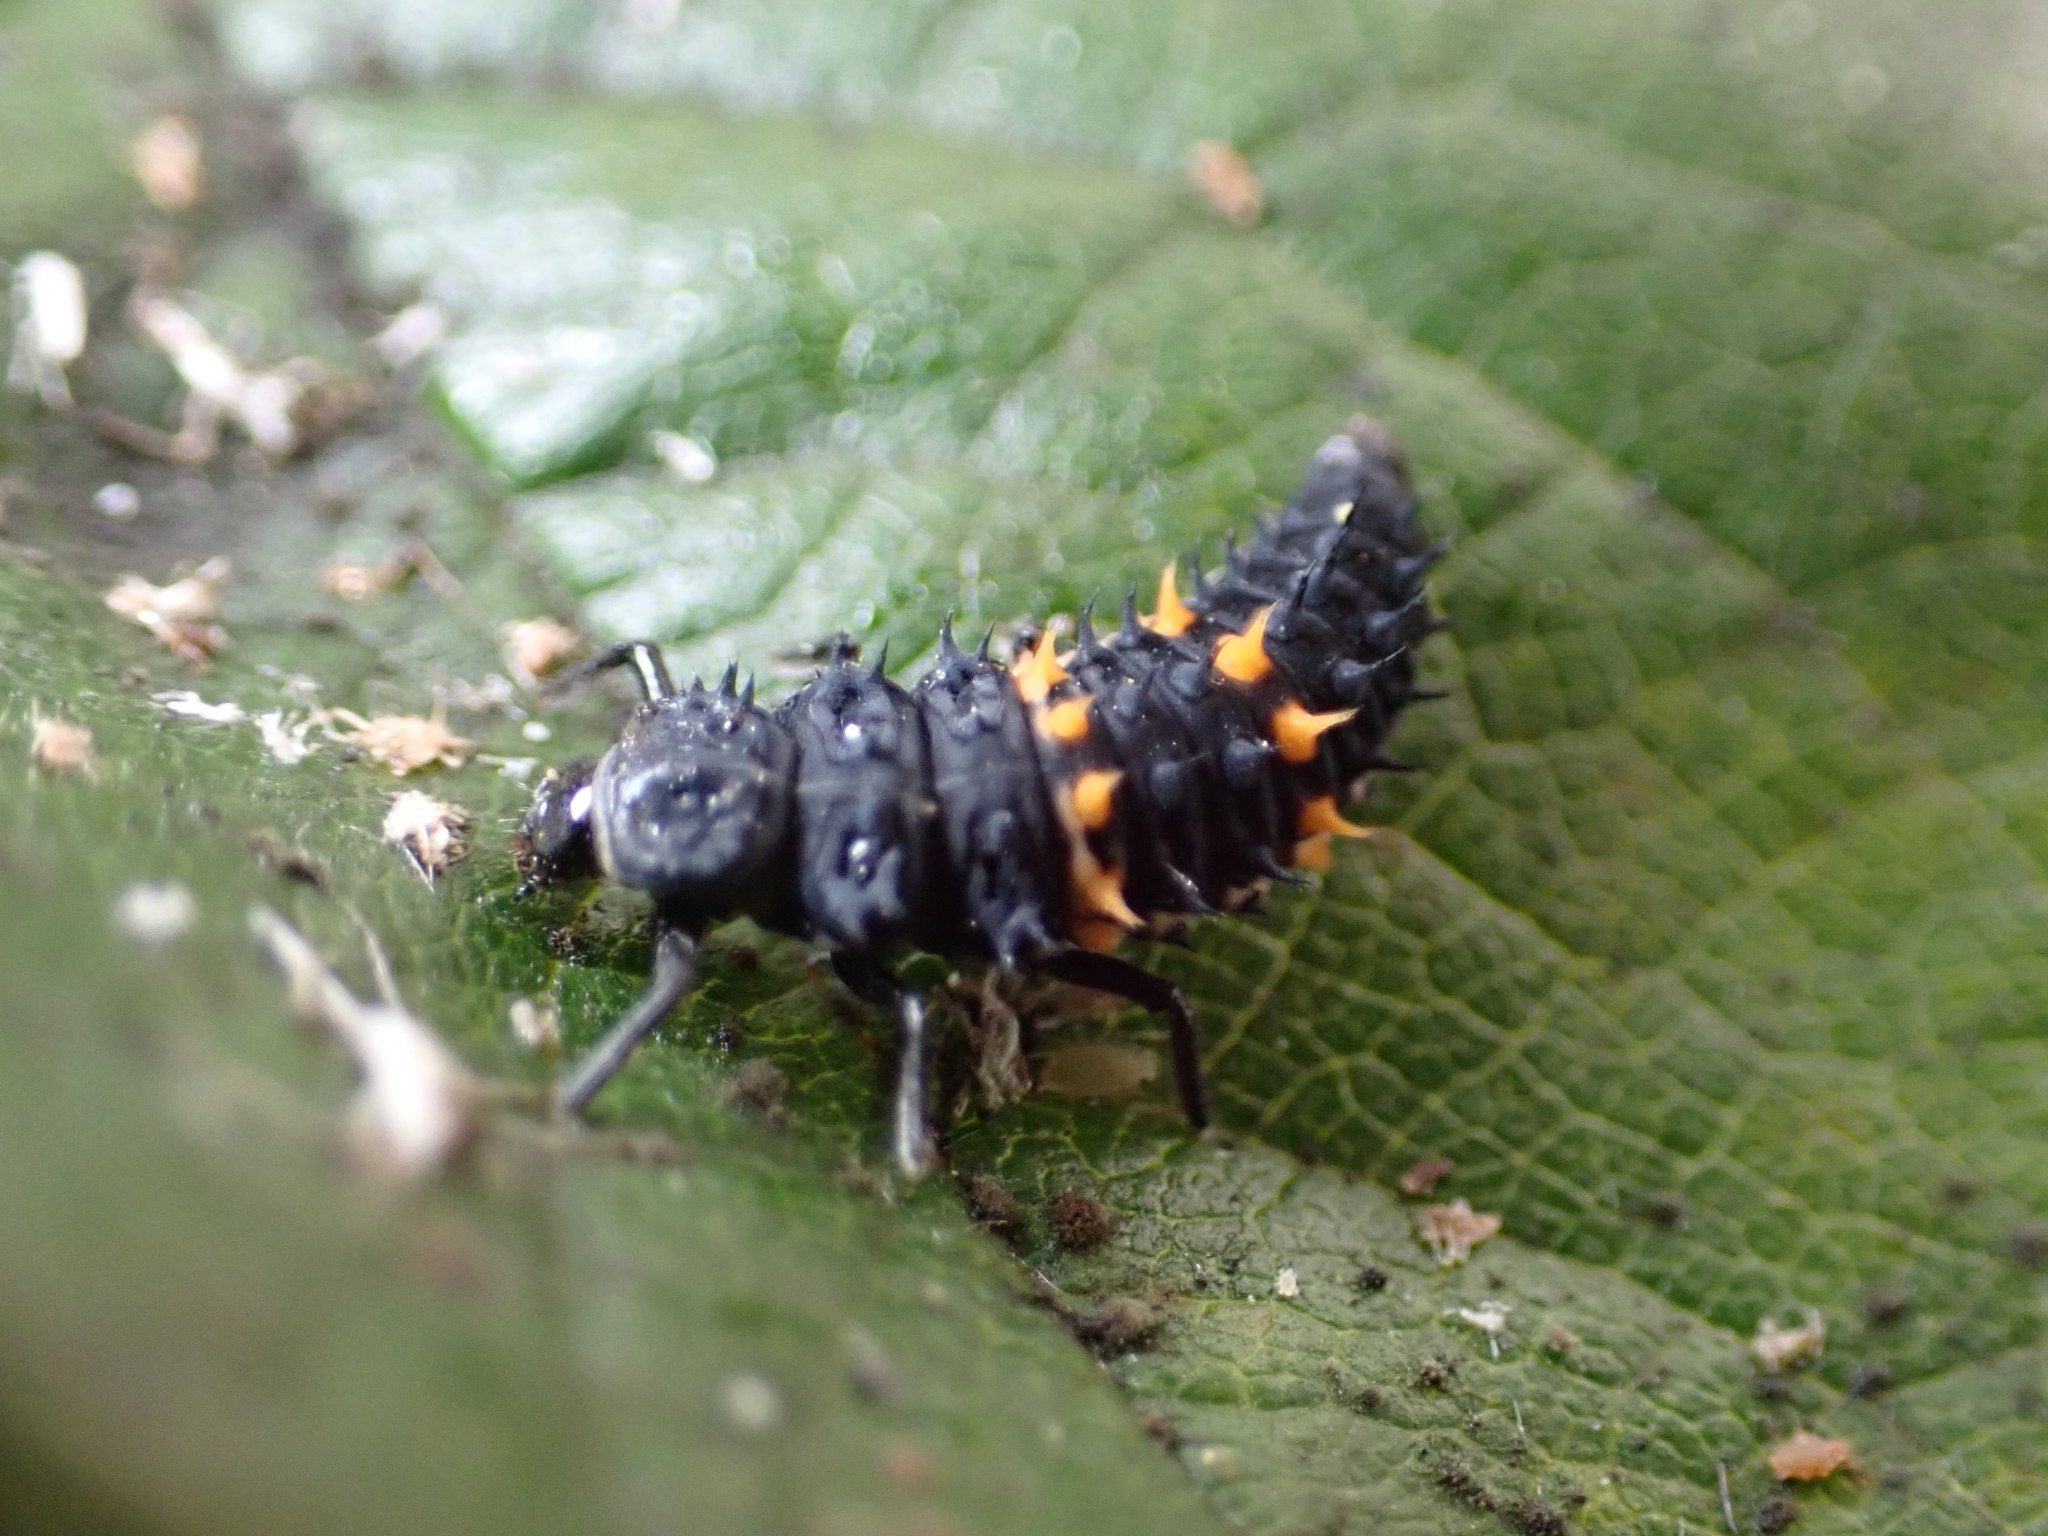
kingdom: Animalia
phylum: Arthropoda
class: Insecta
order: Coleoptera
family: Coccinellidae
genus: Harmonia
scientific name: Harmonia conformis
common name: Common spotted ladybird beetle
